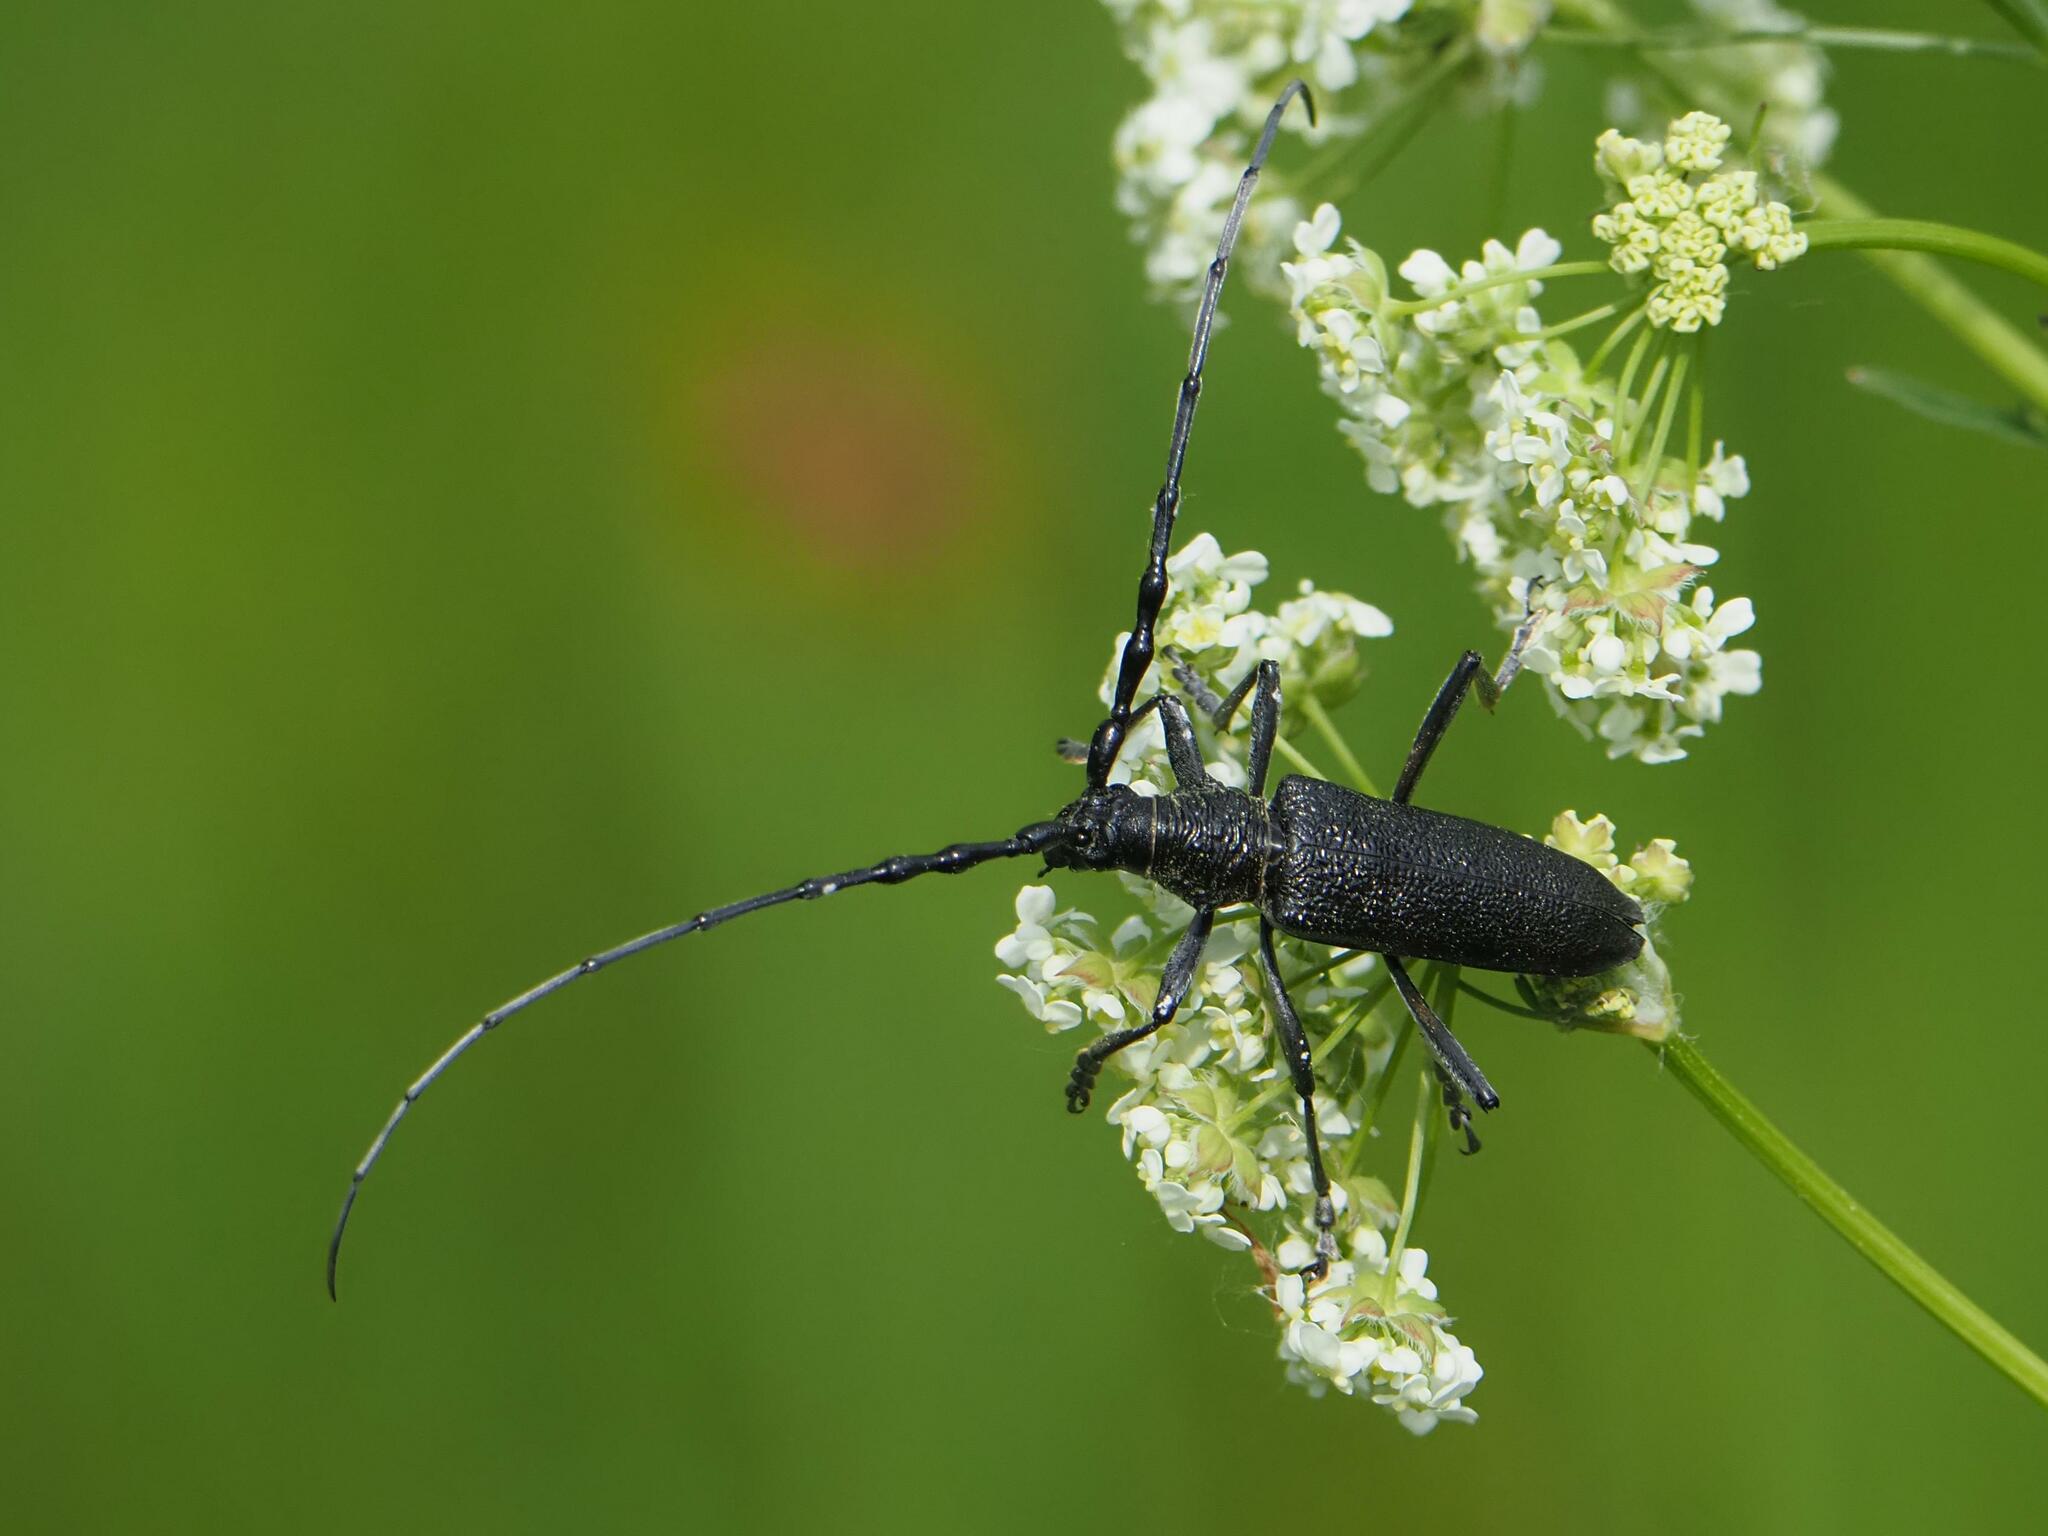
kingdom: Animalia
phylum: Arthropoda
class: Insecta
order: Coleoptera
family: Cerambycidae
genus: Cerambyx
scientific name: Cerambyx scopolii
